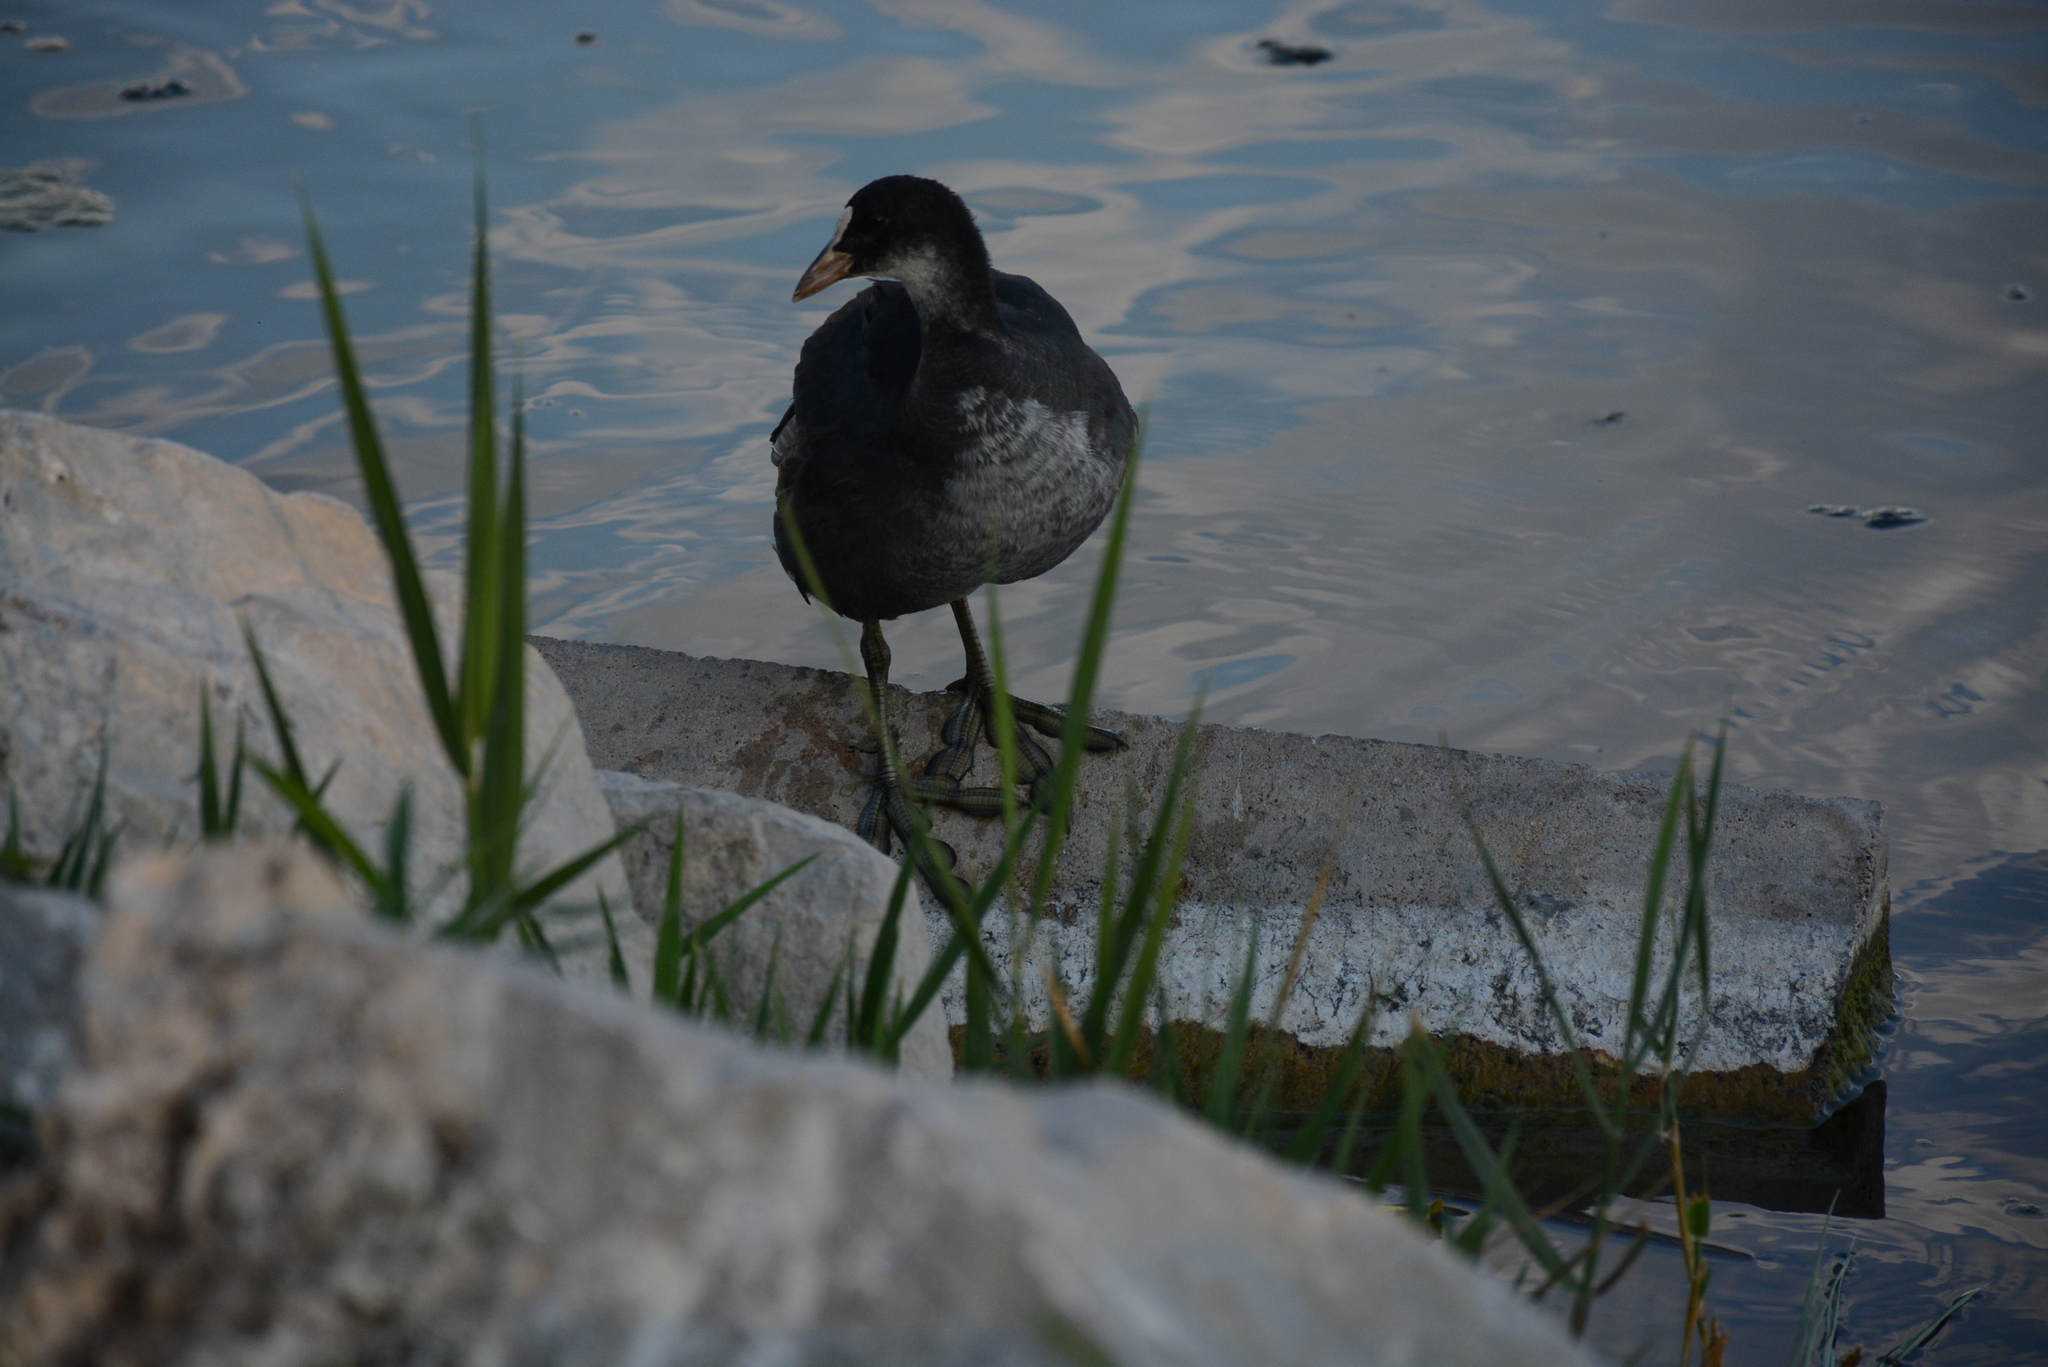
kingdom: Animalia
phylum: Chordata
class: Aves
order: Gruiformes
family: Rallidae
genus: Fulica
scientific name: Fulica atra
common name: Eurasian coot
